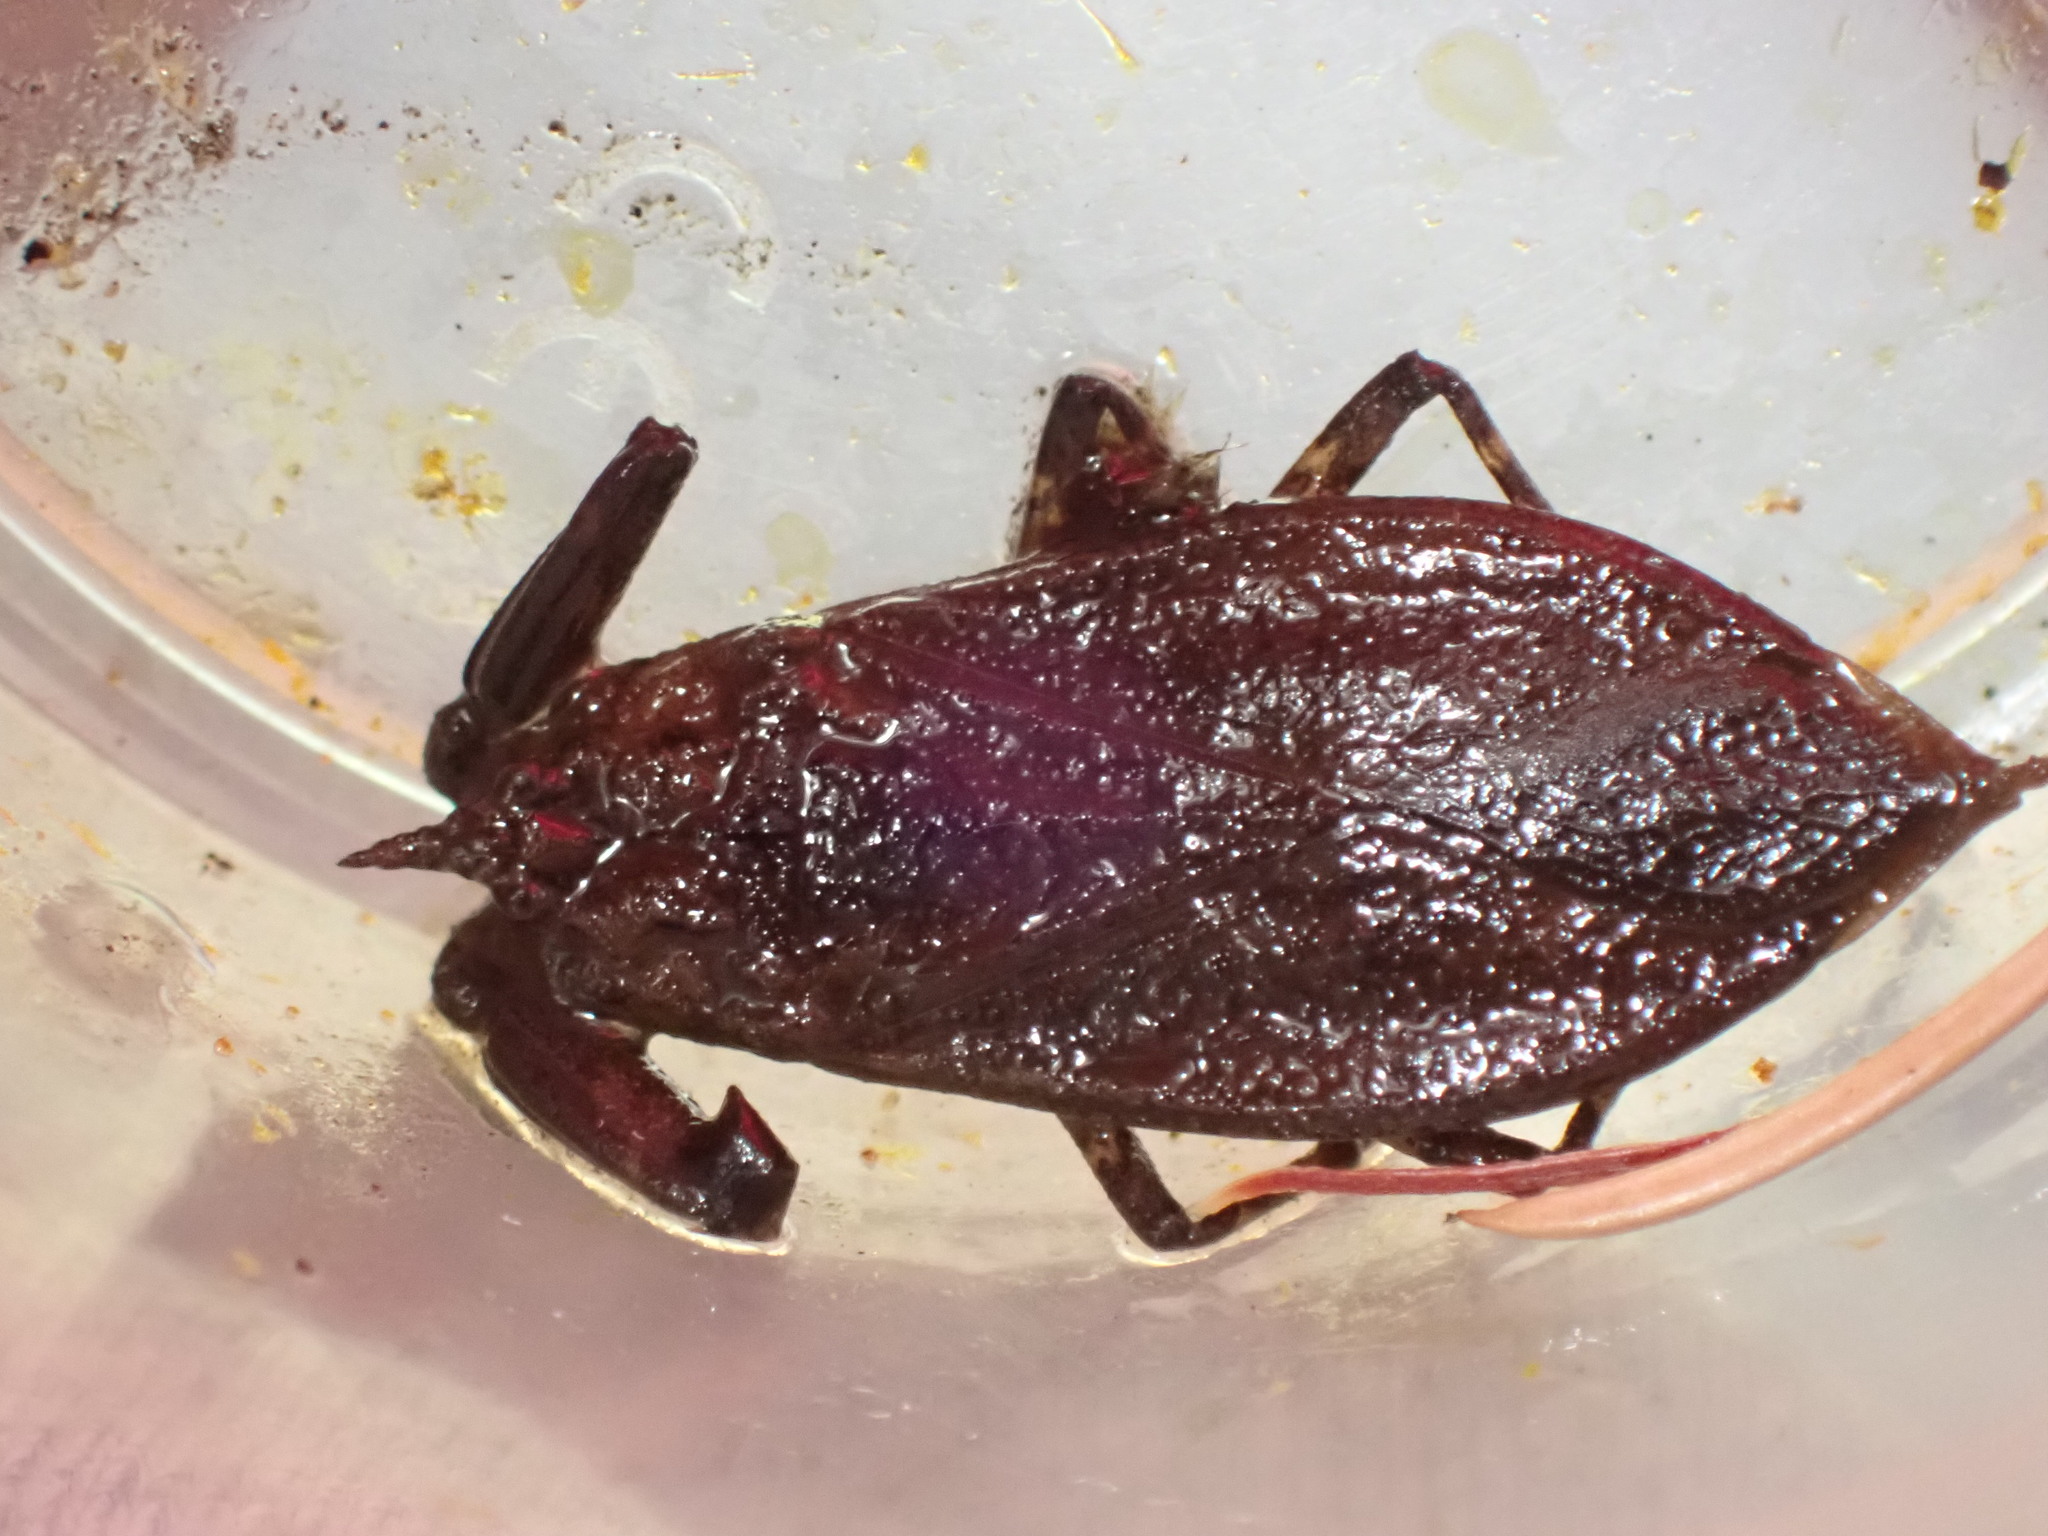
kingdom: Animalia
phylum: Arthropoda
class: Insecta
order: Hemiptera
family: Nepidae
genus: Nepa
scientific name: Nepa cinerea
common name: Water scorpion
